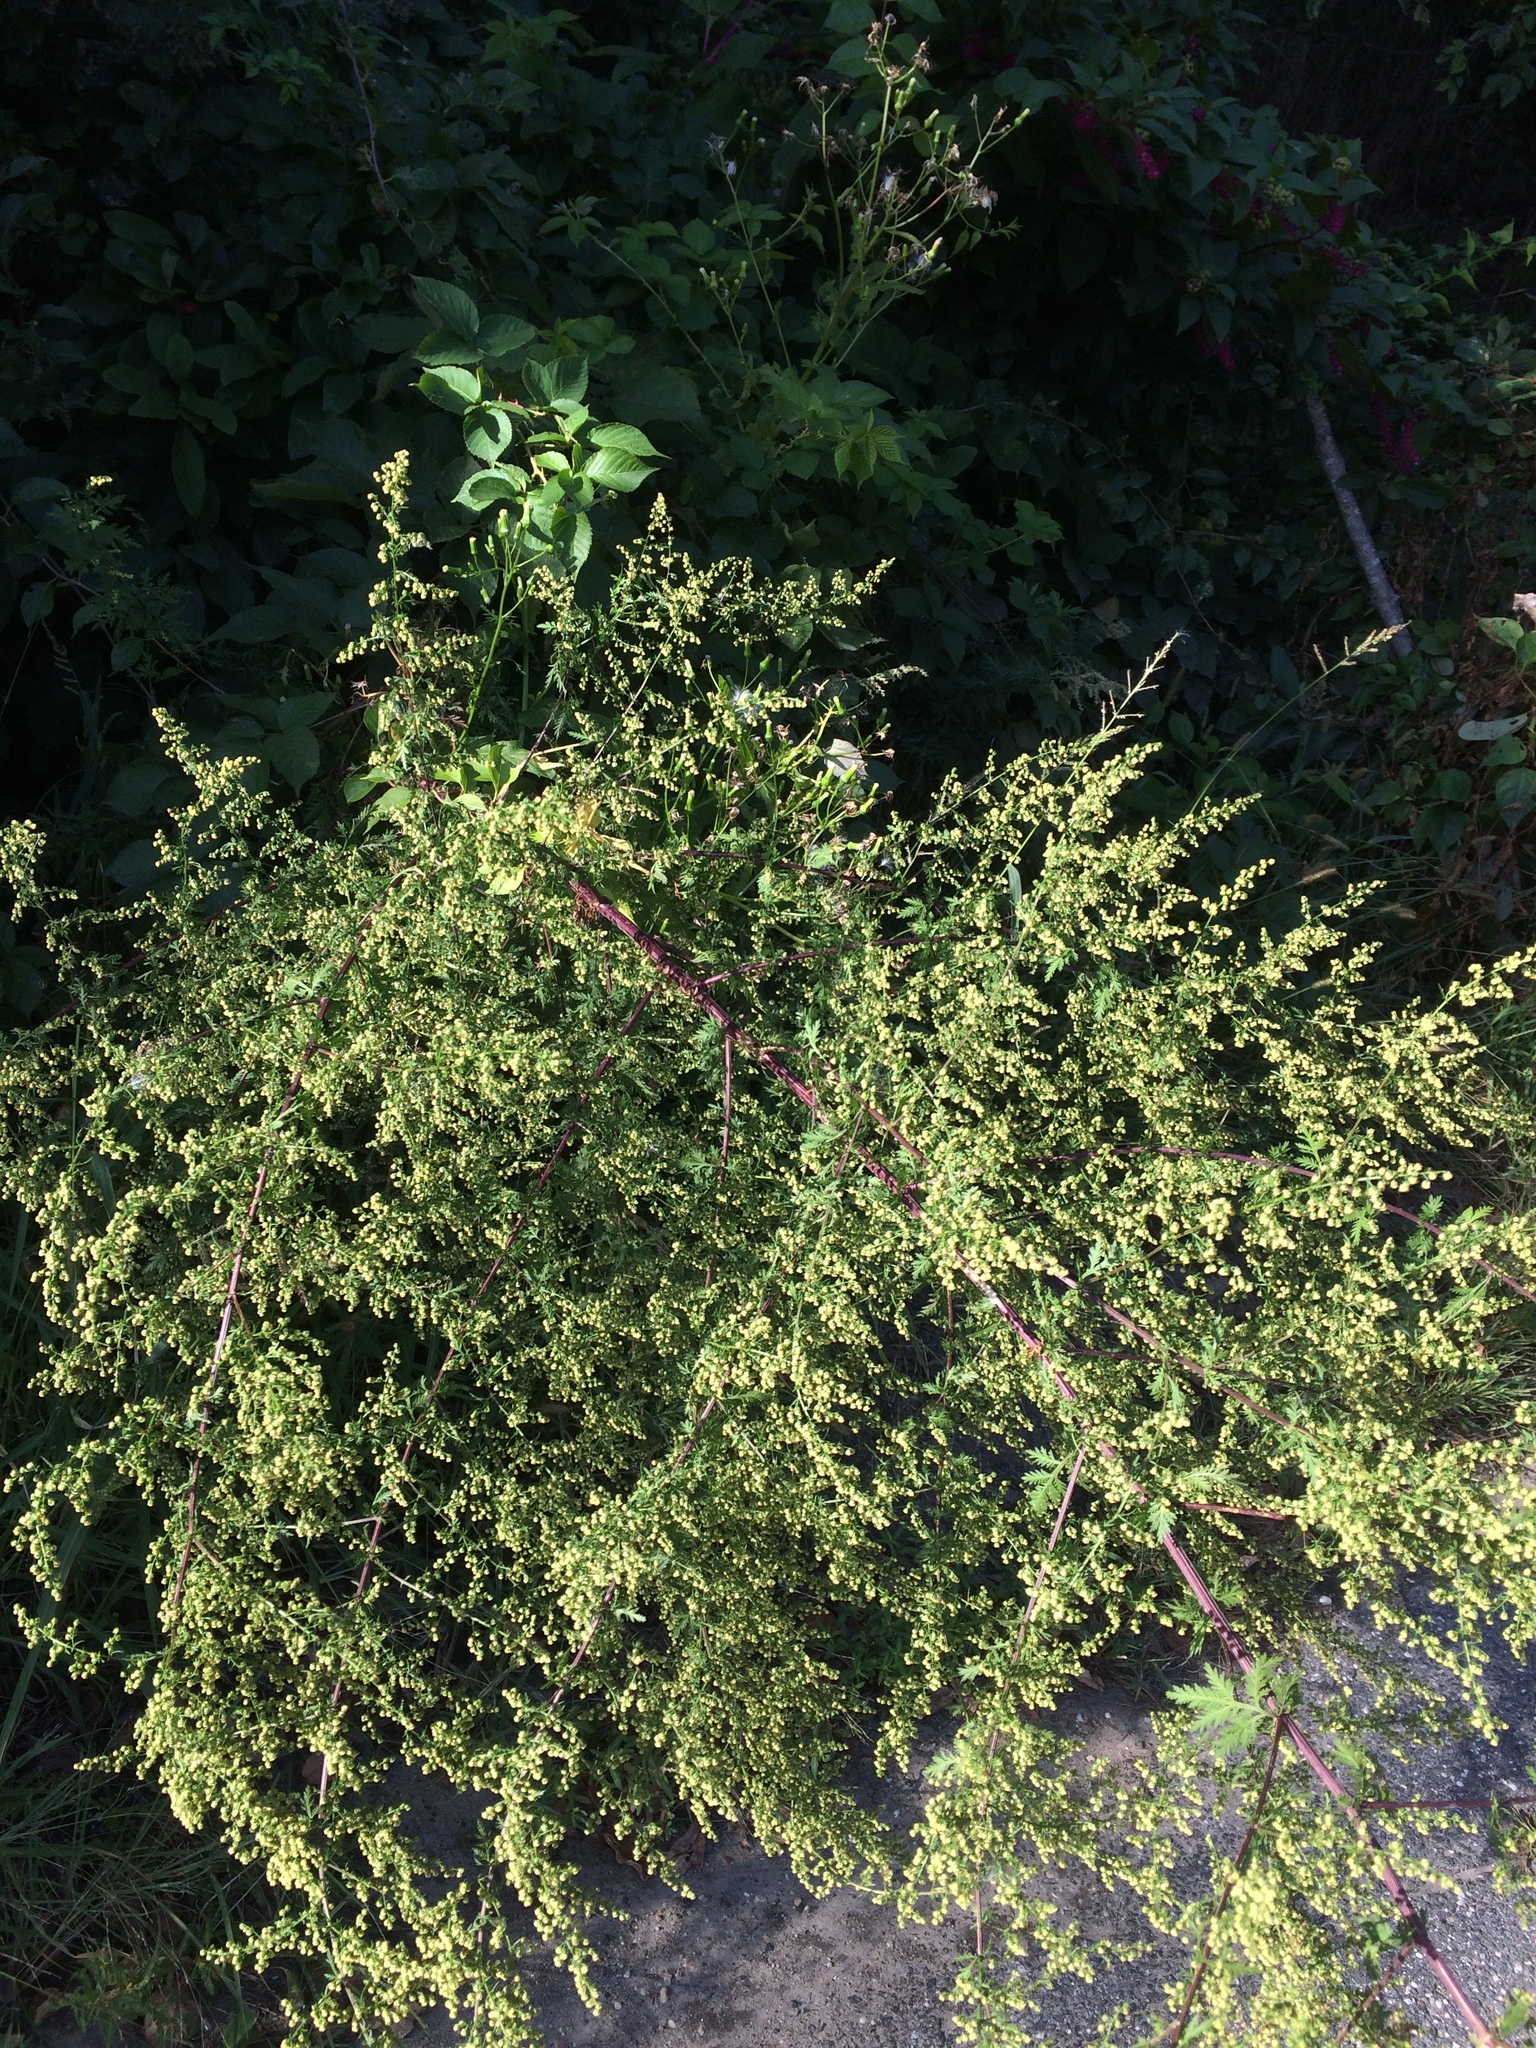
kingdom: Plantae
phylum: Tracheophyta
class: Magnoliopsida
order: Asterales
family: Asteraceae
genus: Artemisia
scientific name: Artemisia annua
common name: Sweet sagewort
